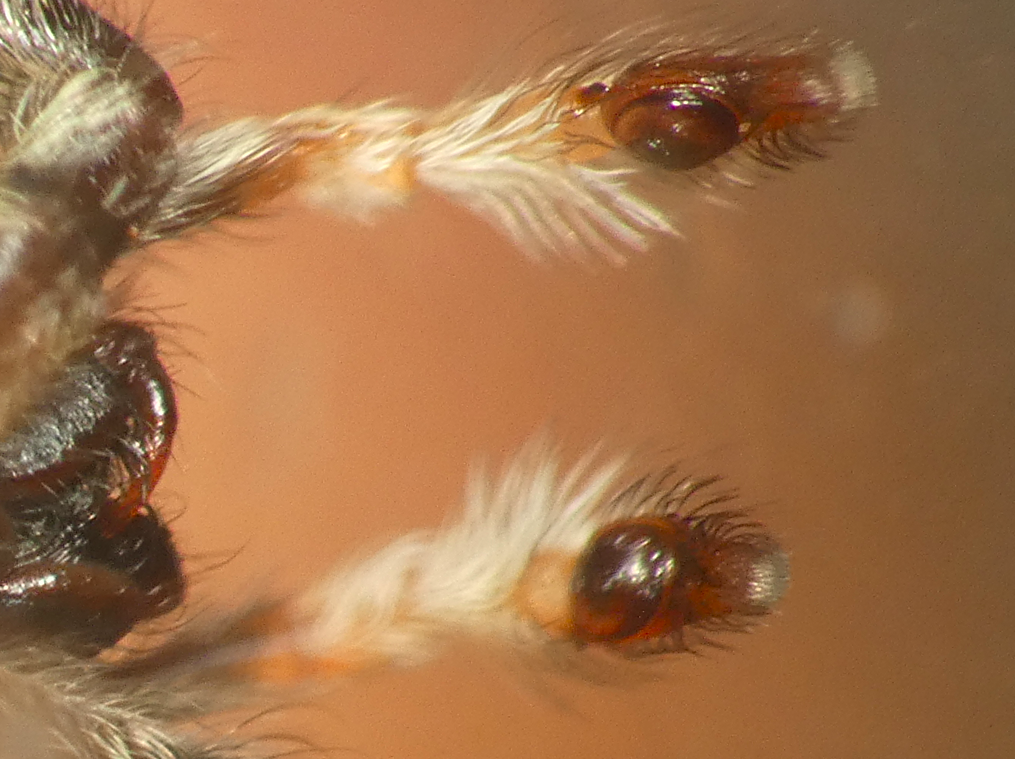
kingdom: Animalia
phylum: Arthropoda
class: Arachnida
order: Araneae
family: Salticidae
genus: Parajotus
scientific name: Parajotus refulgens
